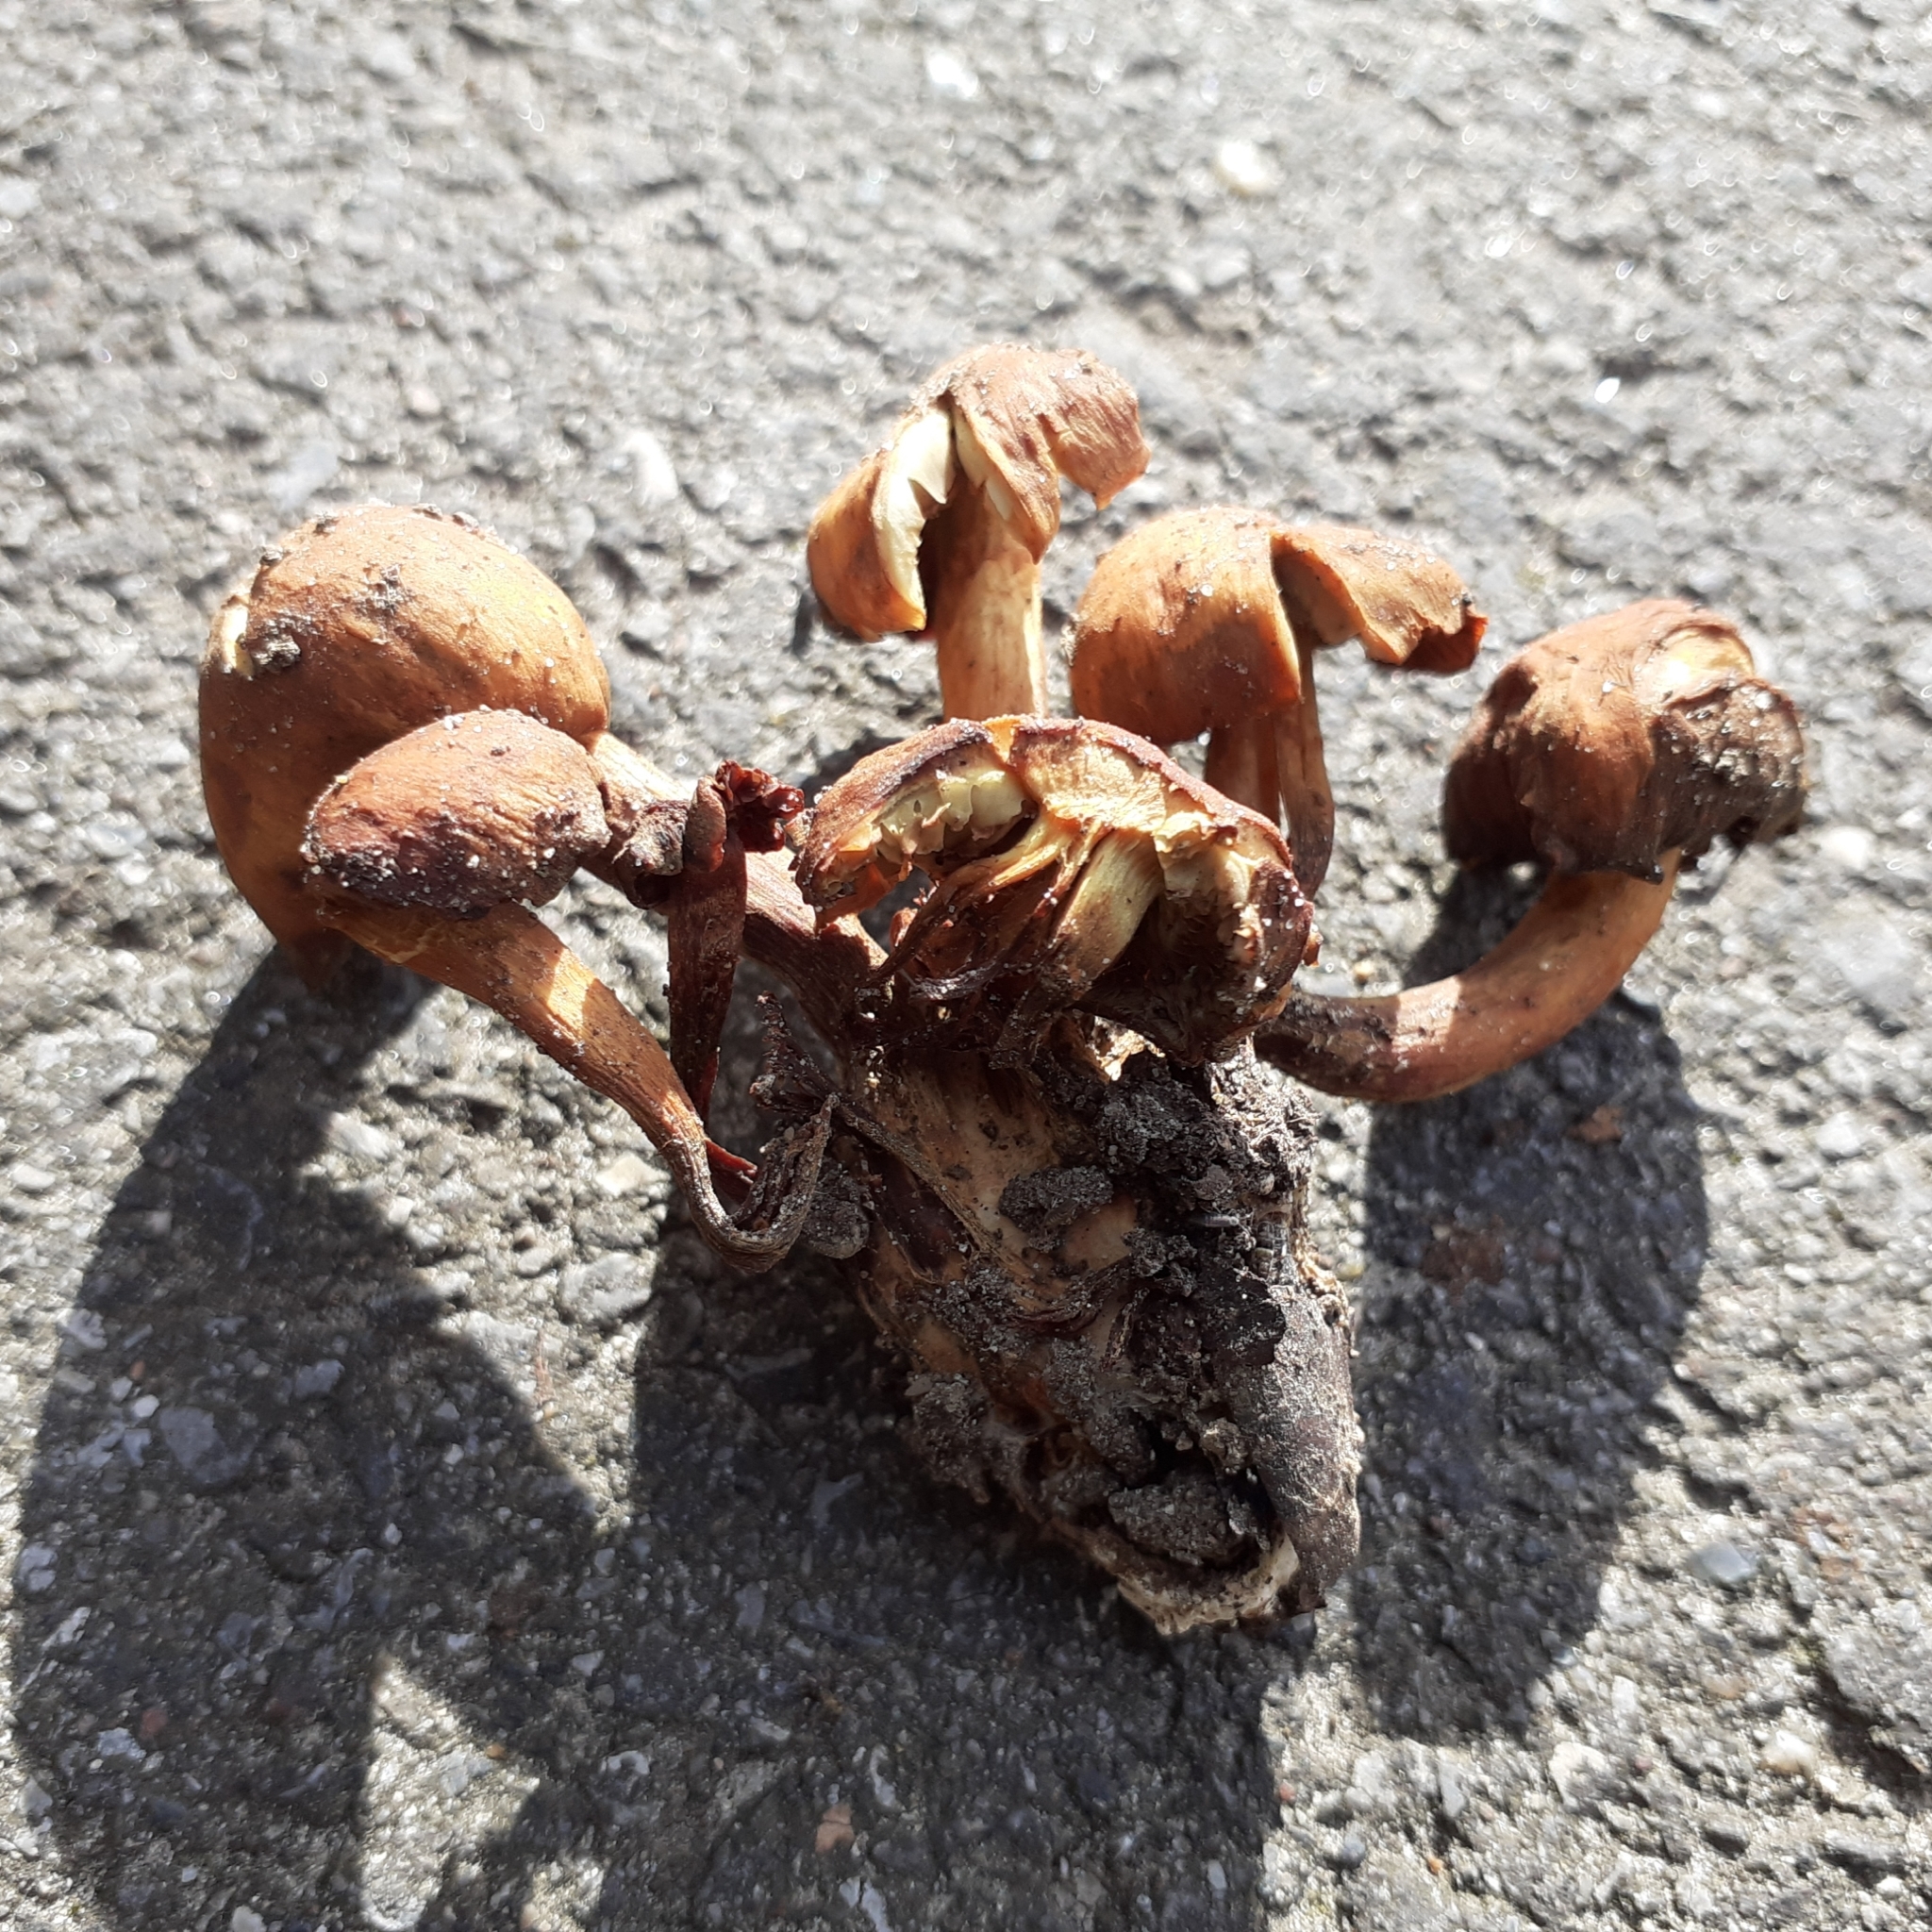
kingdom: Fungi
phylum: Basidiomycota
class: Agaricomycetes
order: Agaricales
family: Omphalotaceae
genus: Gymnopus
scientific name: Gymnopus fusipes
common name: Spindle shank
